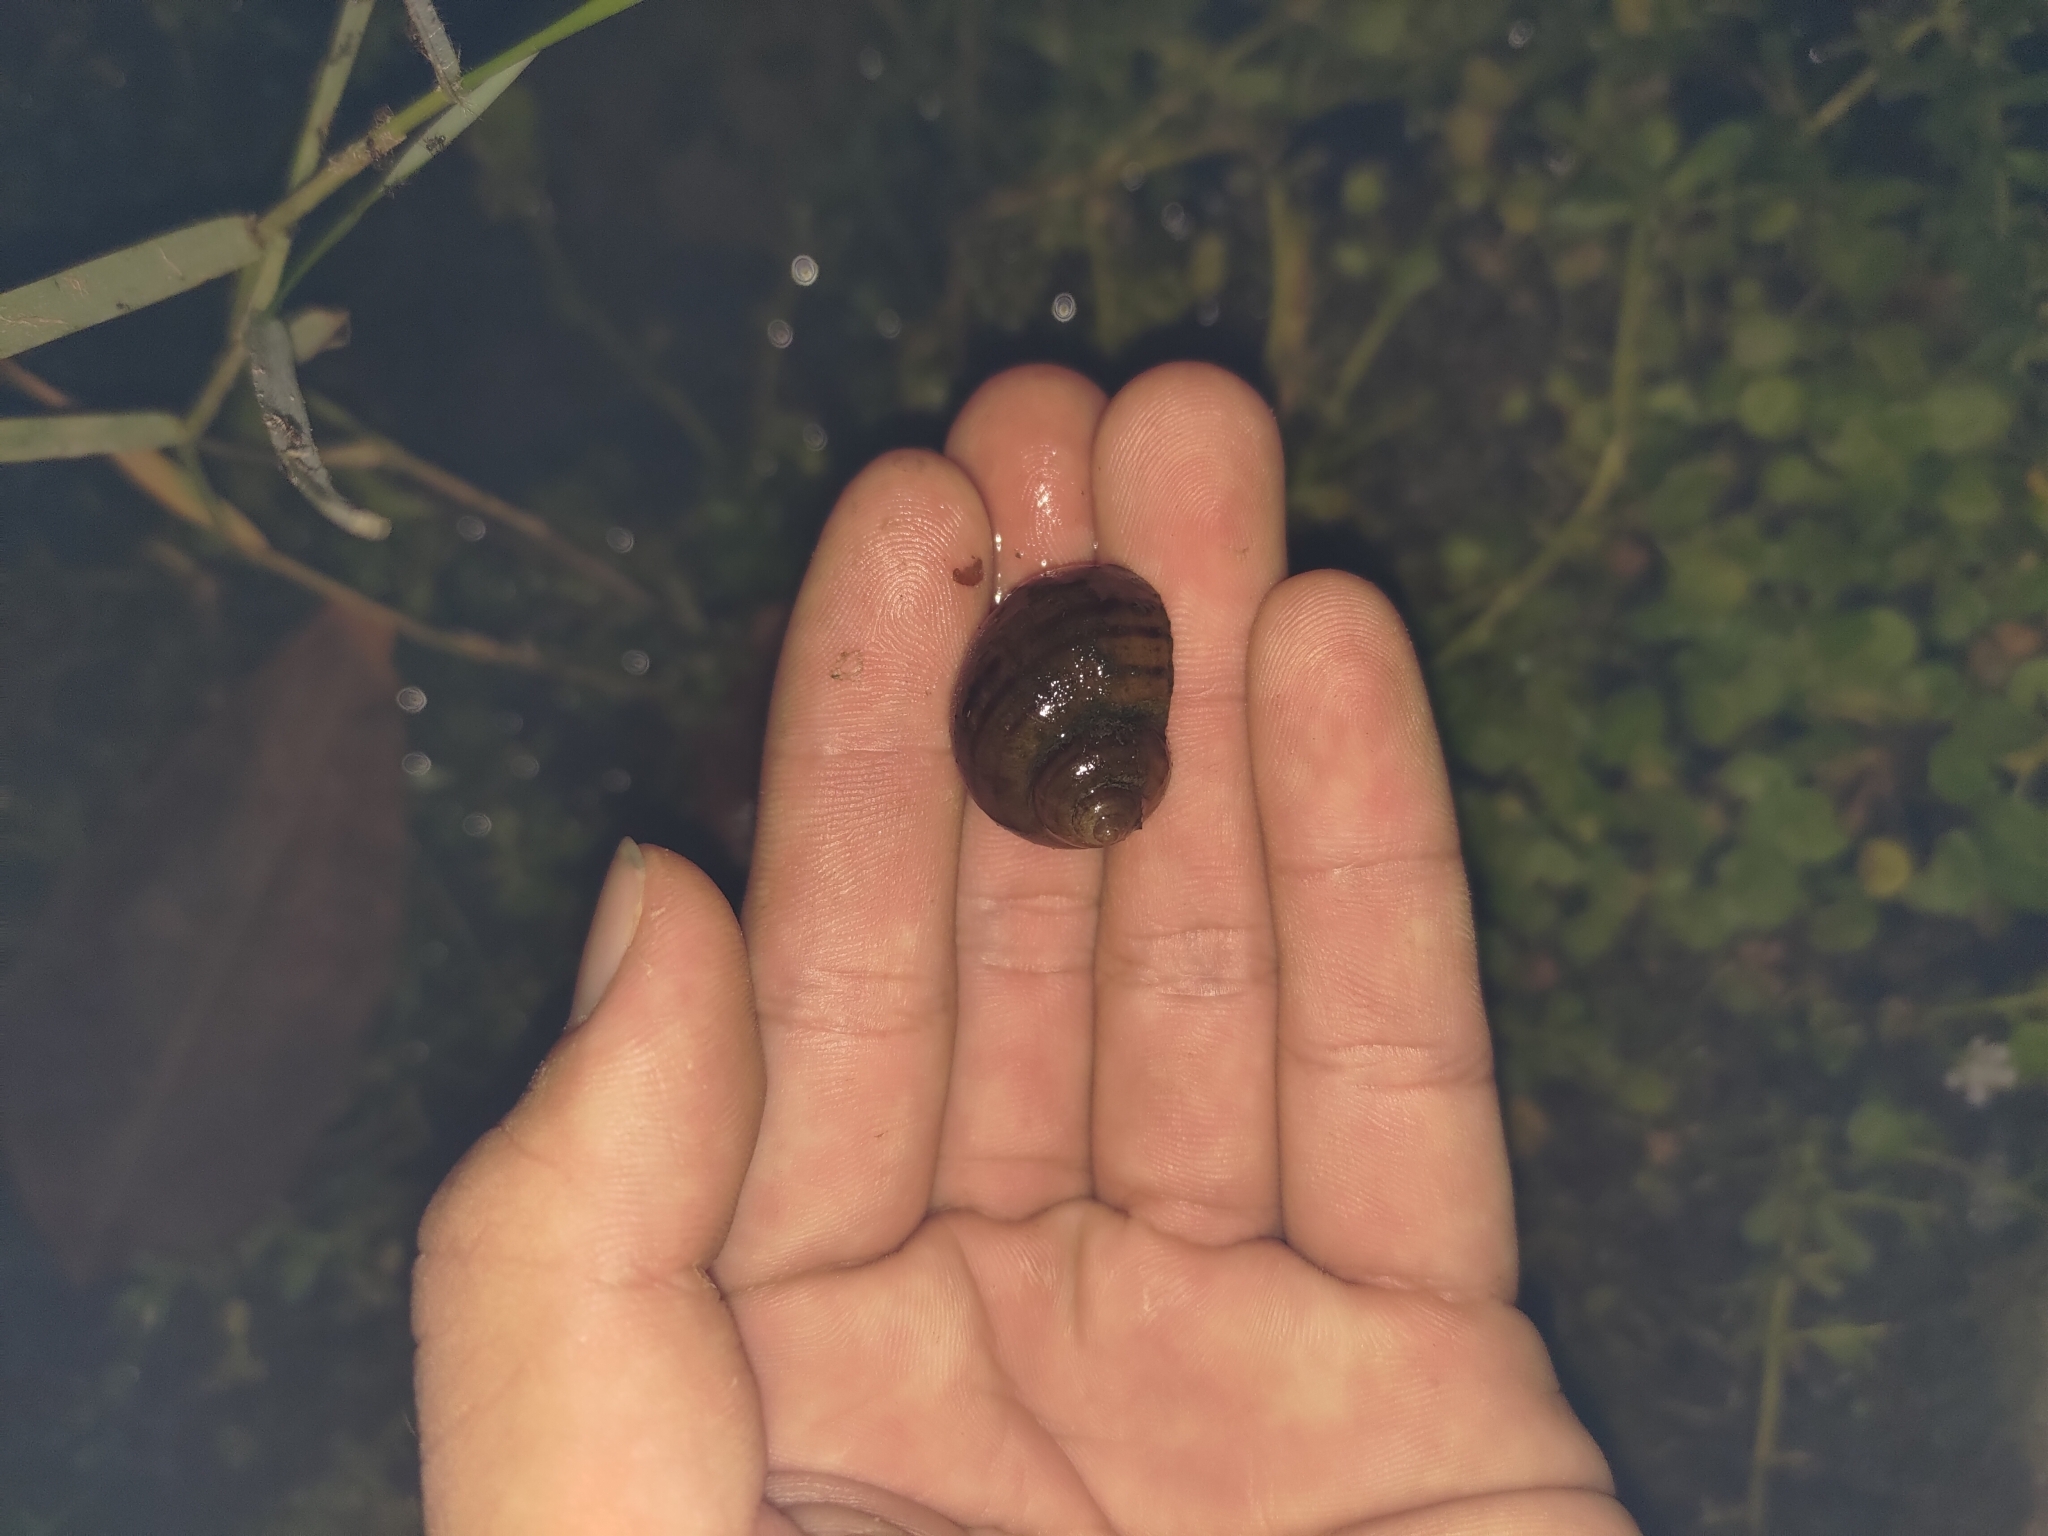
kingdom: Animalia
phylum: Mollusca
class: Gastropoda
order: Architaenioglossa
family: Ampullariidae
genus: Pomacea
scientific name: Pomacea canaliculata
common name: Channeled applesnail
